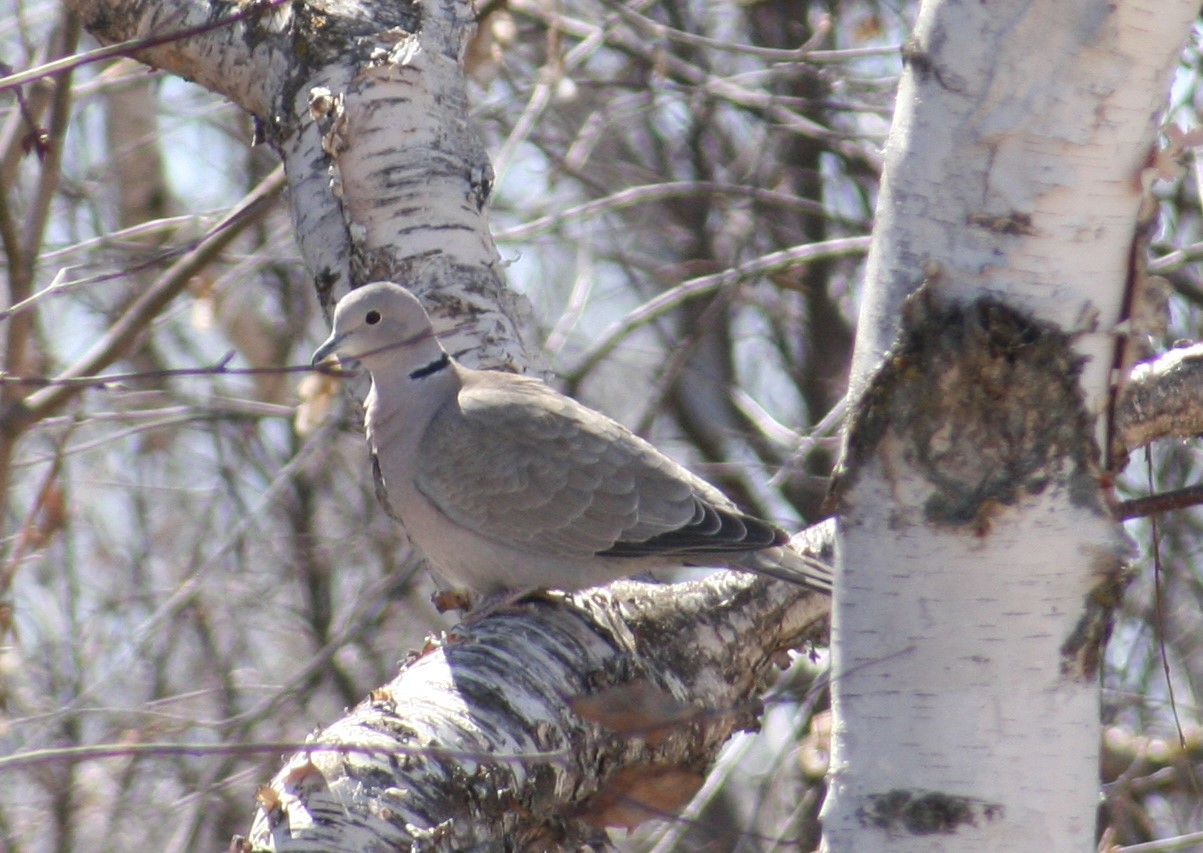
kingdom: Animalia
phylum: Chordata
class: Aves
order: Columbiformes
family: Columbidae
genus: Streptopelia
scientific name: Streptopelia decaocto
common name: Eurasian collared dove
